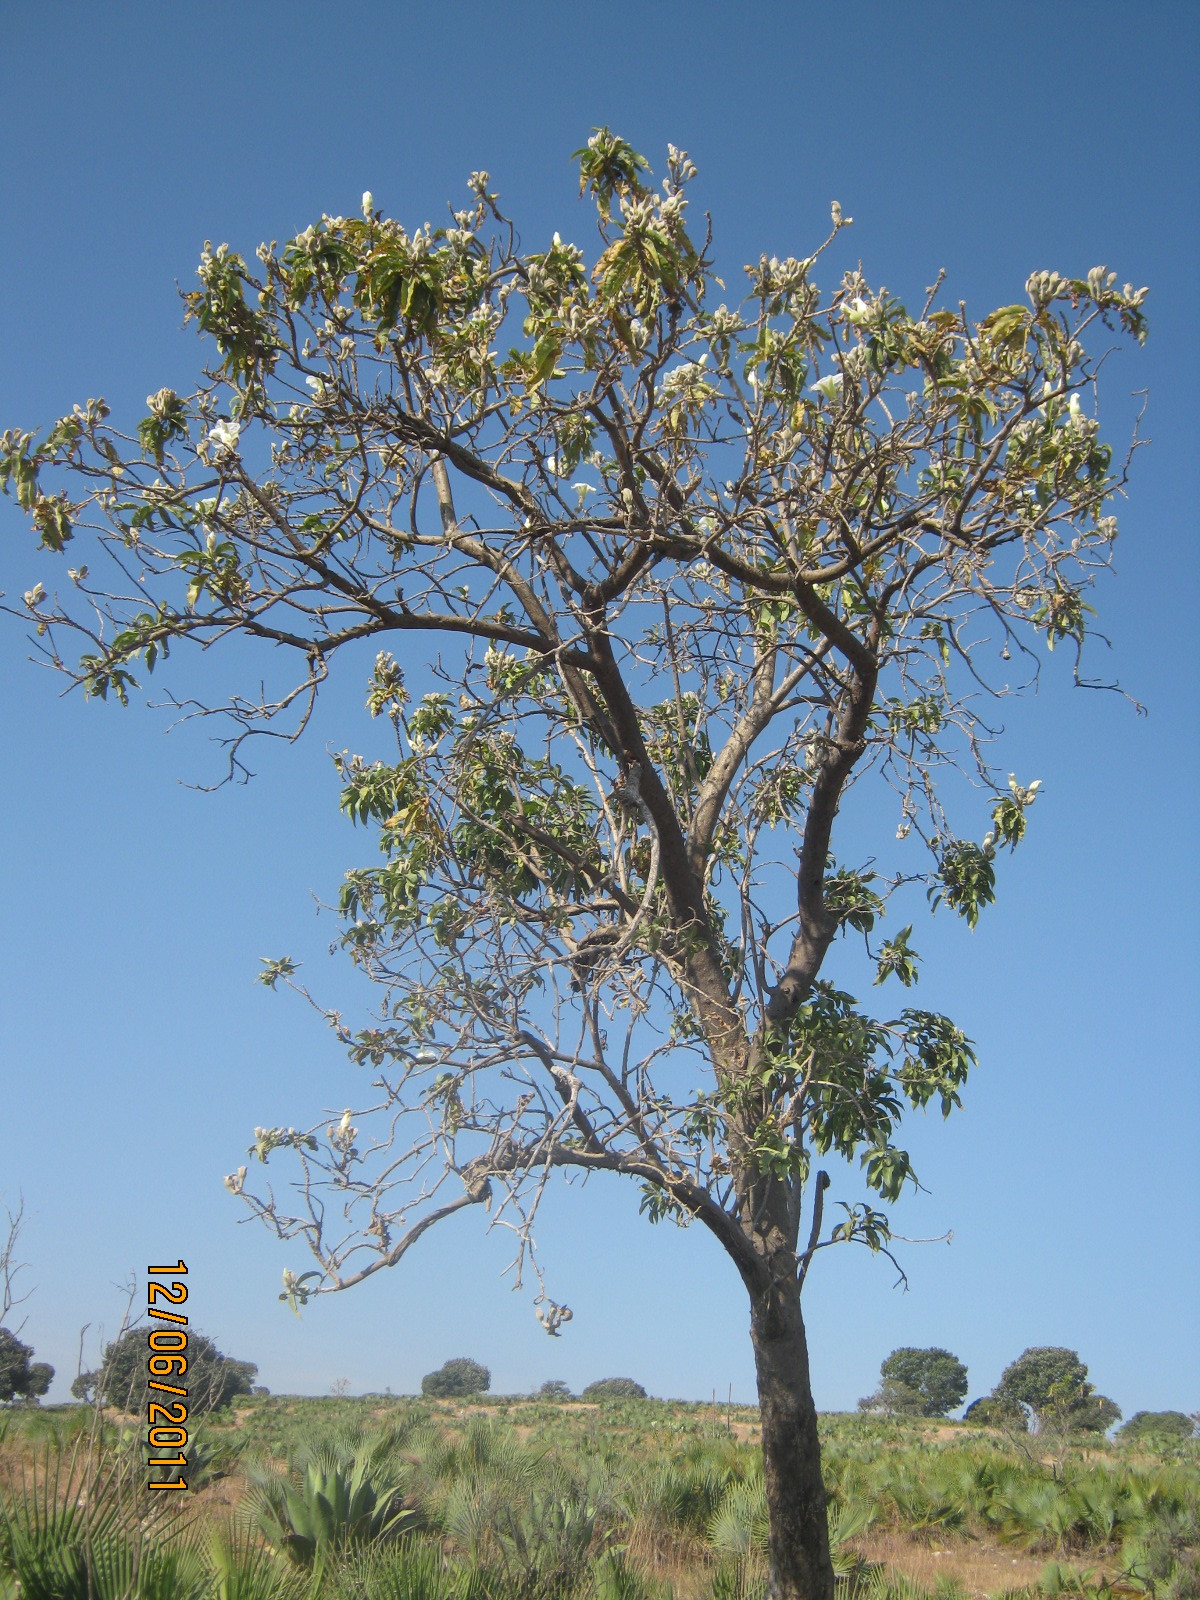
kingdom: Plantae
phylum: Tracheophyta
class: Magnoliopsida
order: Solanales
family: Convolvulaceae
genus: Ipomoea
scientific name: Ipomoea murucoides
